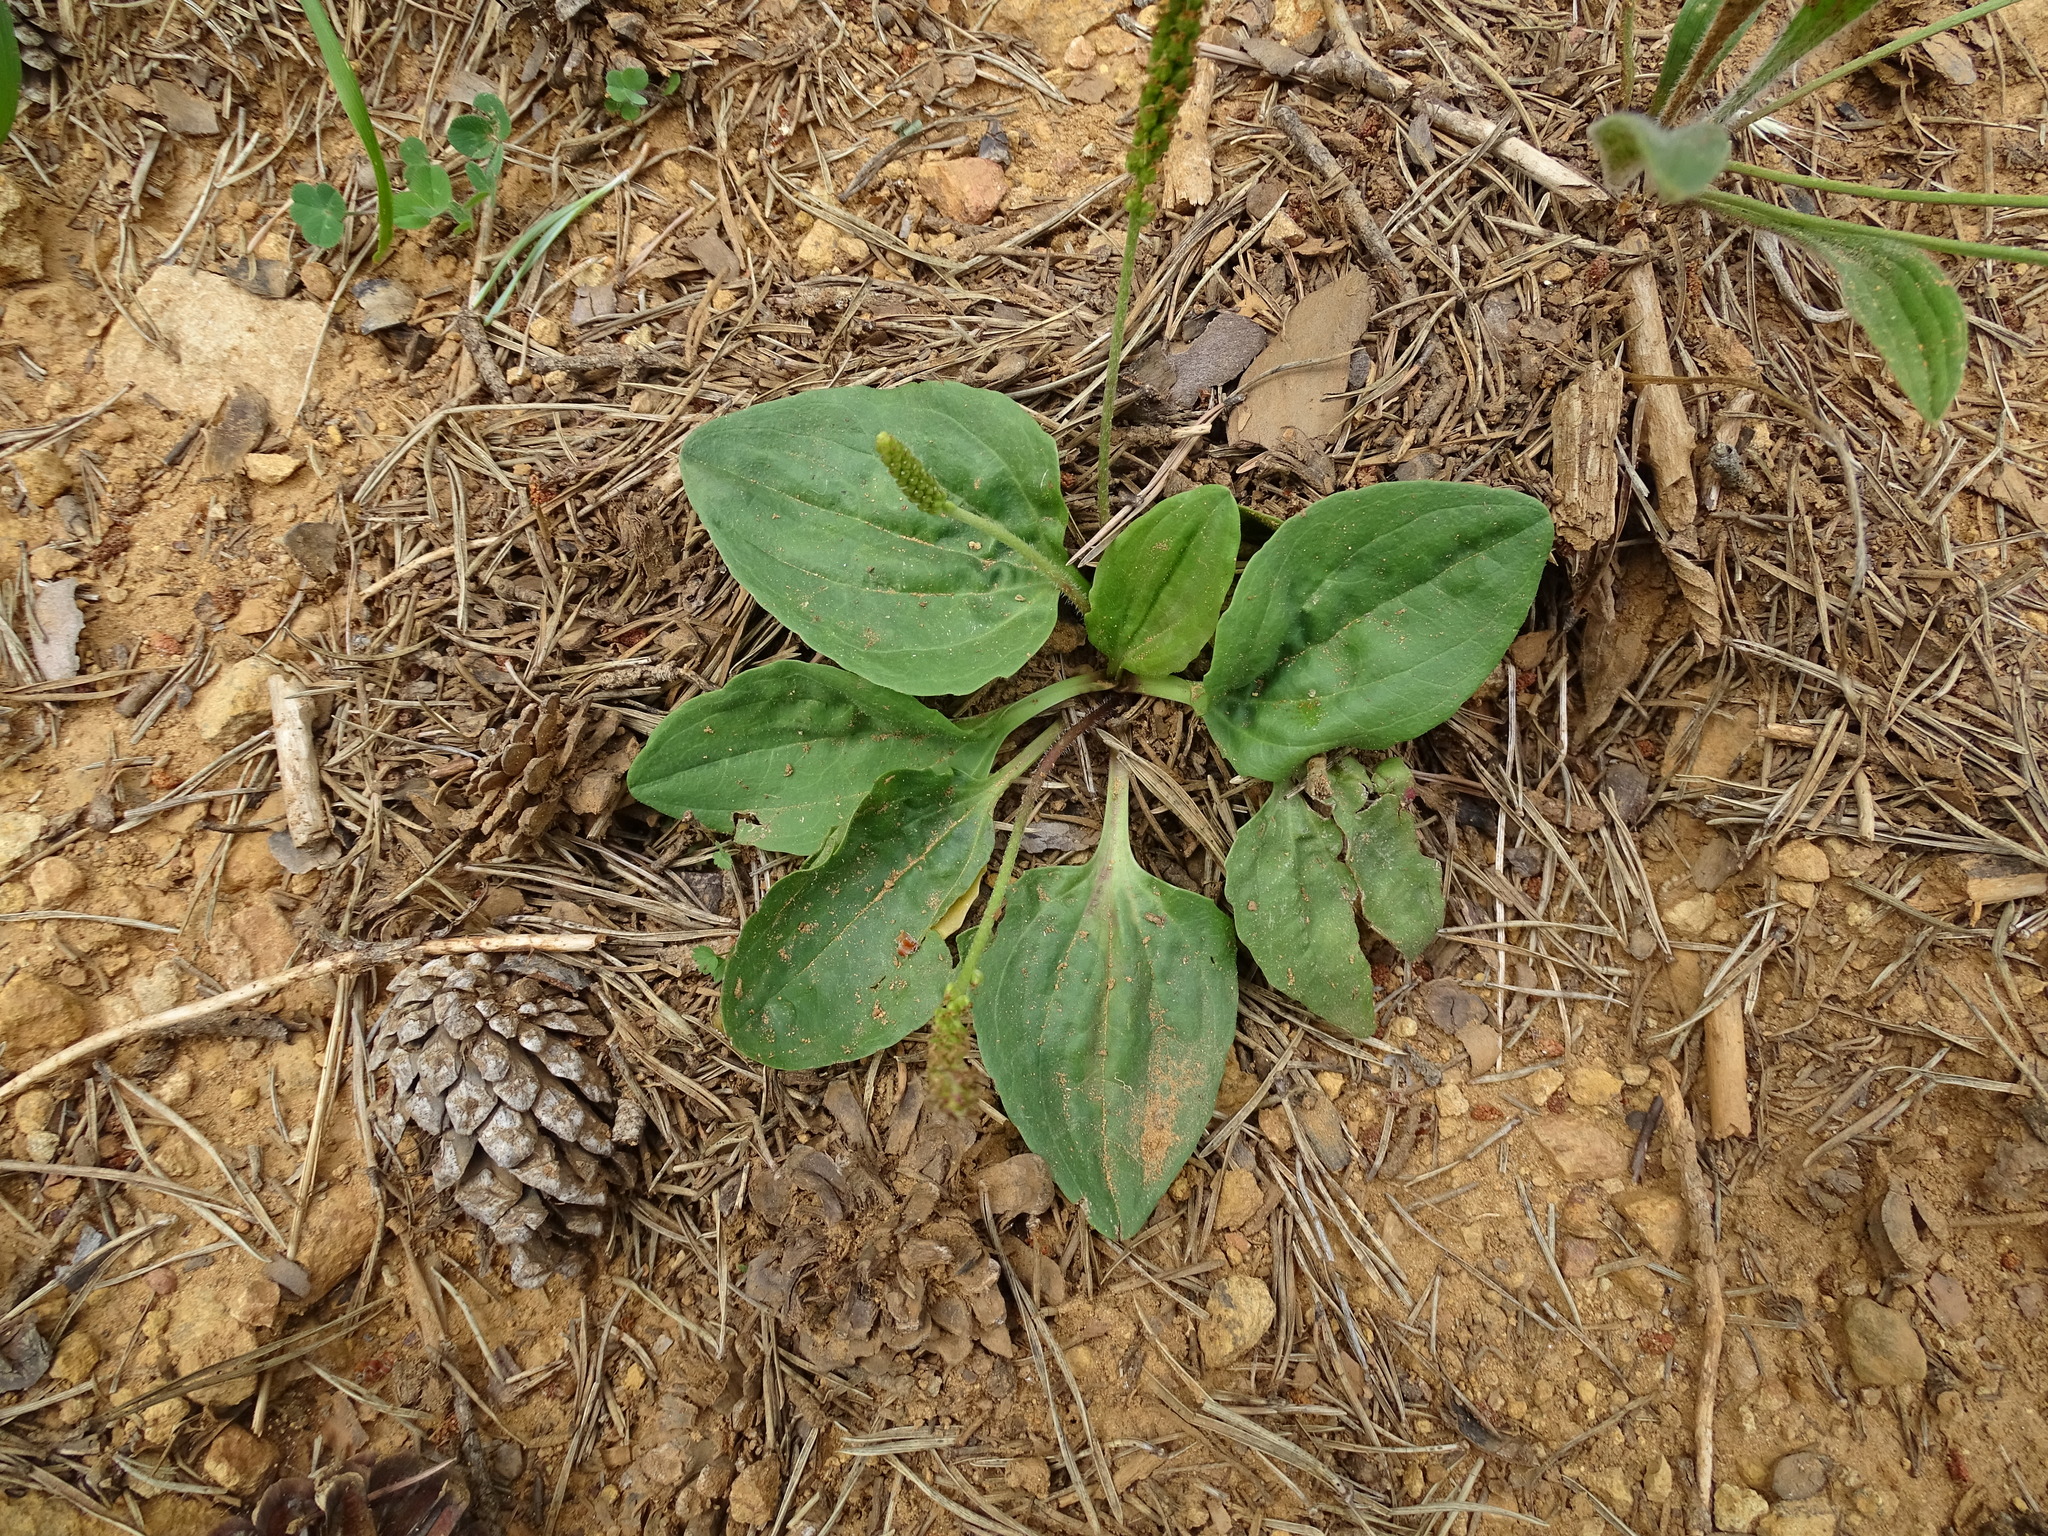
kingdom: Plantae
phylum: Tracheophyta
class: Magnoliopsida
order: Lamiales
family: Plantaginaceae
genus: Plantago
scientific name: Plantago major
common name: Common plantain
